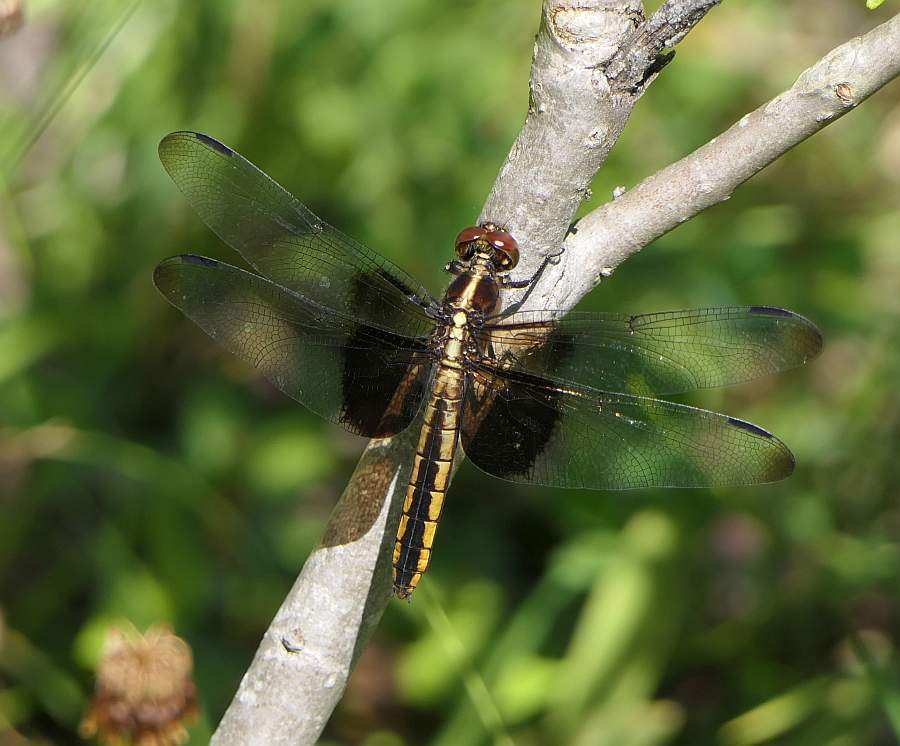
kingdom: Animalia
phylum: Arthropoda
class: Insecta
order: Odonata
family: Libellulidae
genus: Libellula
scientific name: Libellula luctuosa
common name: Widow skimmer
